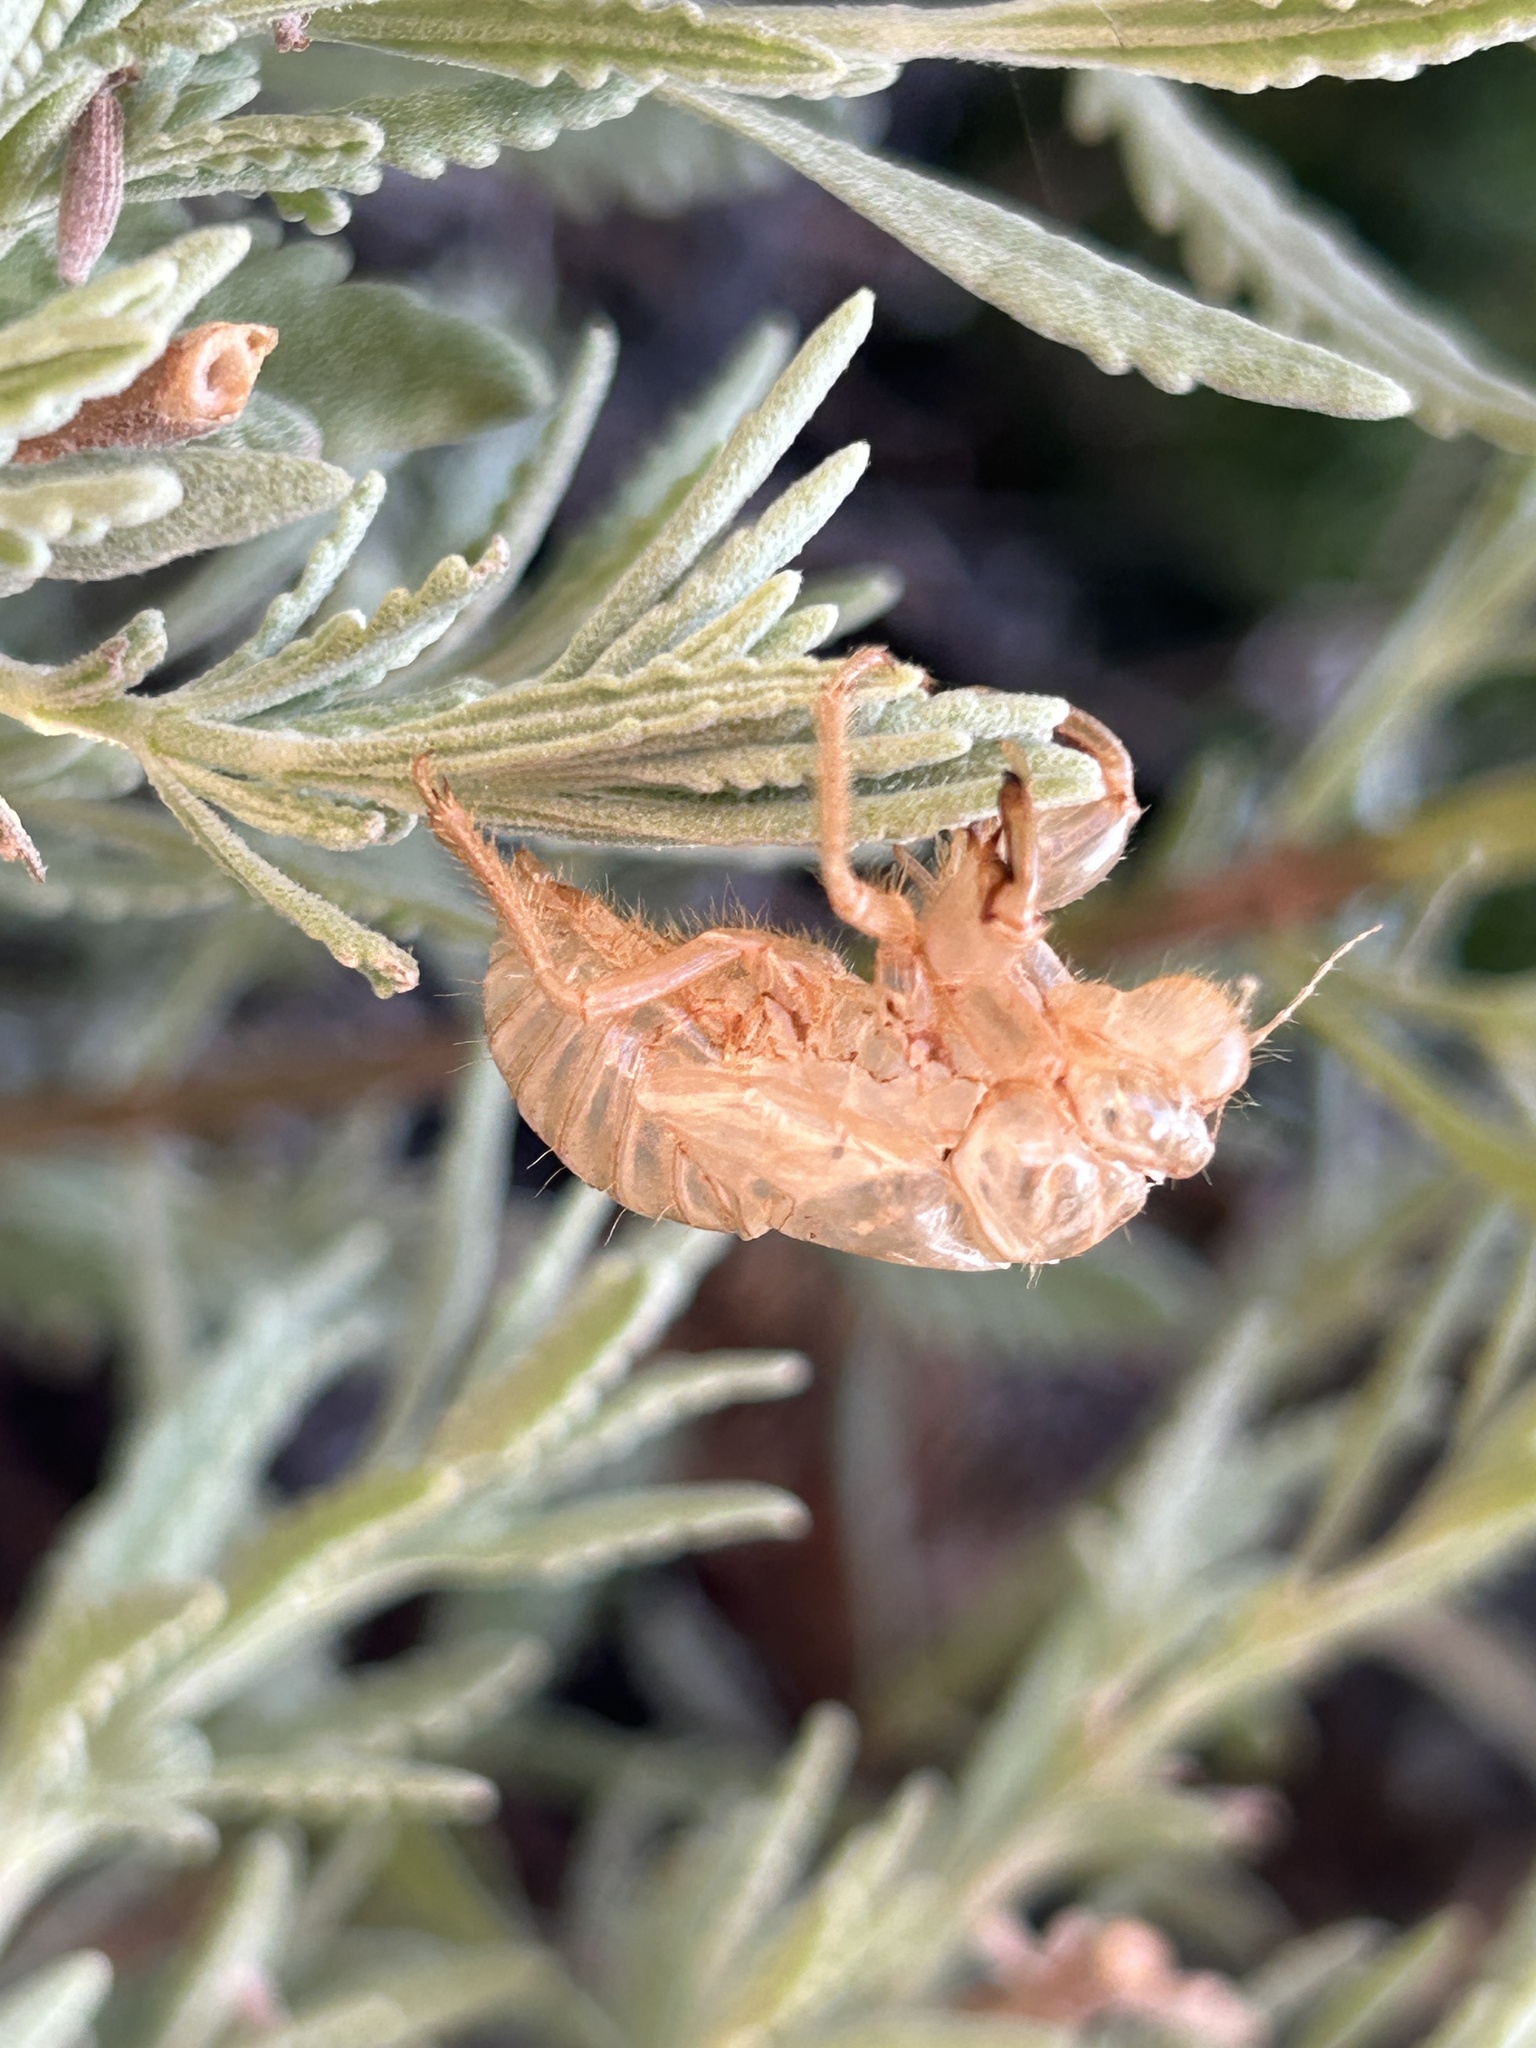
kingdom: Animalia
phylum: Arthropoda
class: Insecta
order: Hemiptera
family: Cicadidae
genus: Cicada
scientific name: Cicada orni
